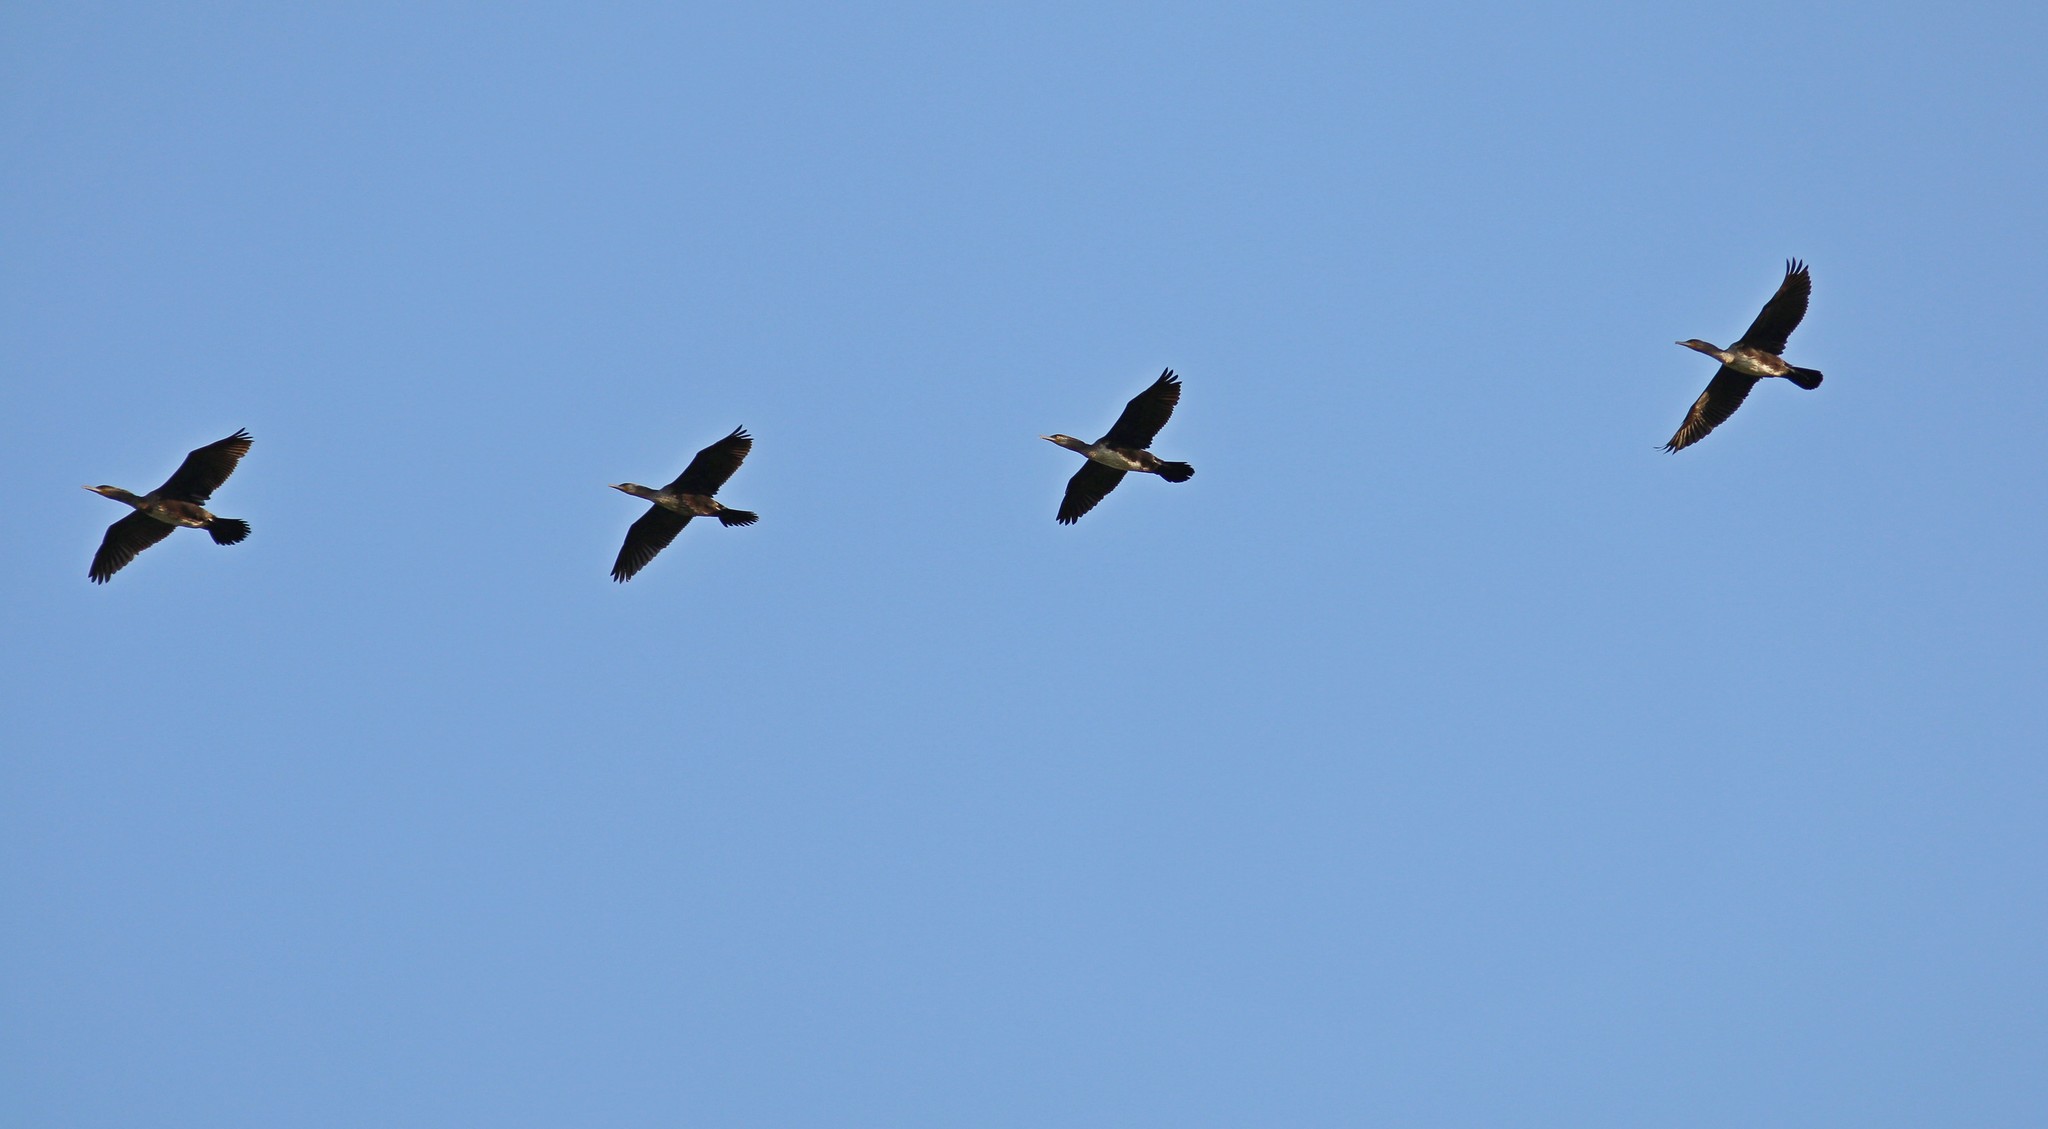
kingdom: Animalia
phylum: Chordata
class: Aves
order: Suliformes
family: Phalacrocoracidae
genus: Phalacrocorax
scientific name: Phalacrocorax carbo
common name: Great cormorant
